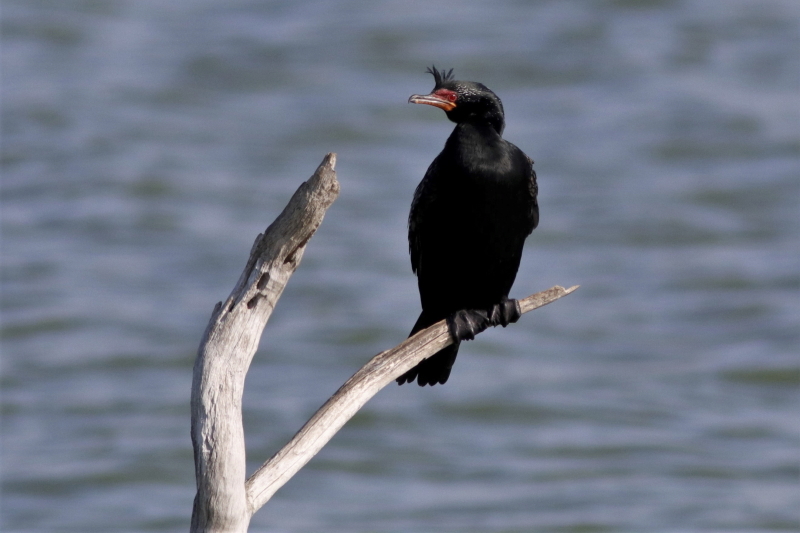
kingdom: Animalia
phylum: Chordata
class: Aves
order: Suliformes
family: Phalacrocoracidae
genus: Microcarbo
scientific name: Microcarbo coronatus
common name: Crowned cormorant
